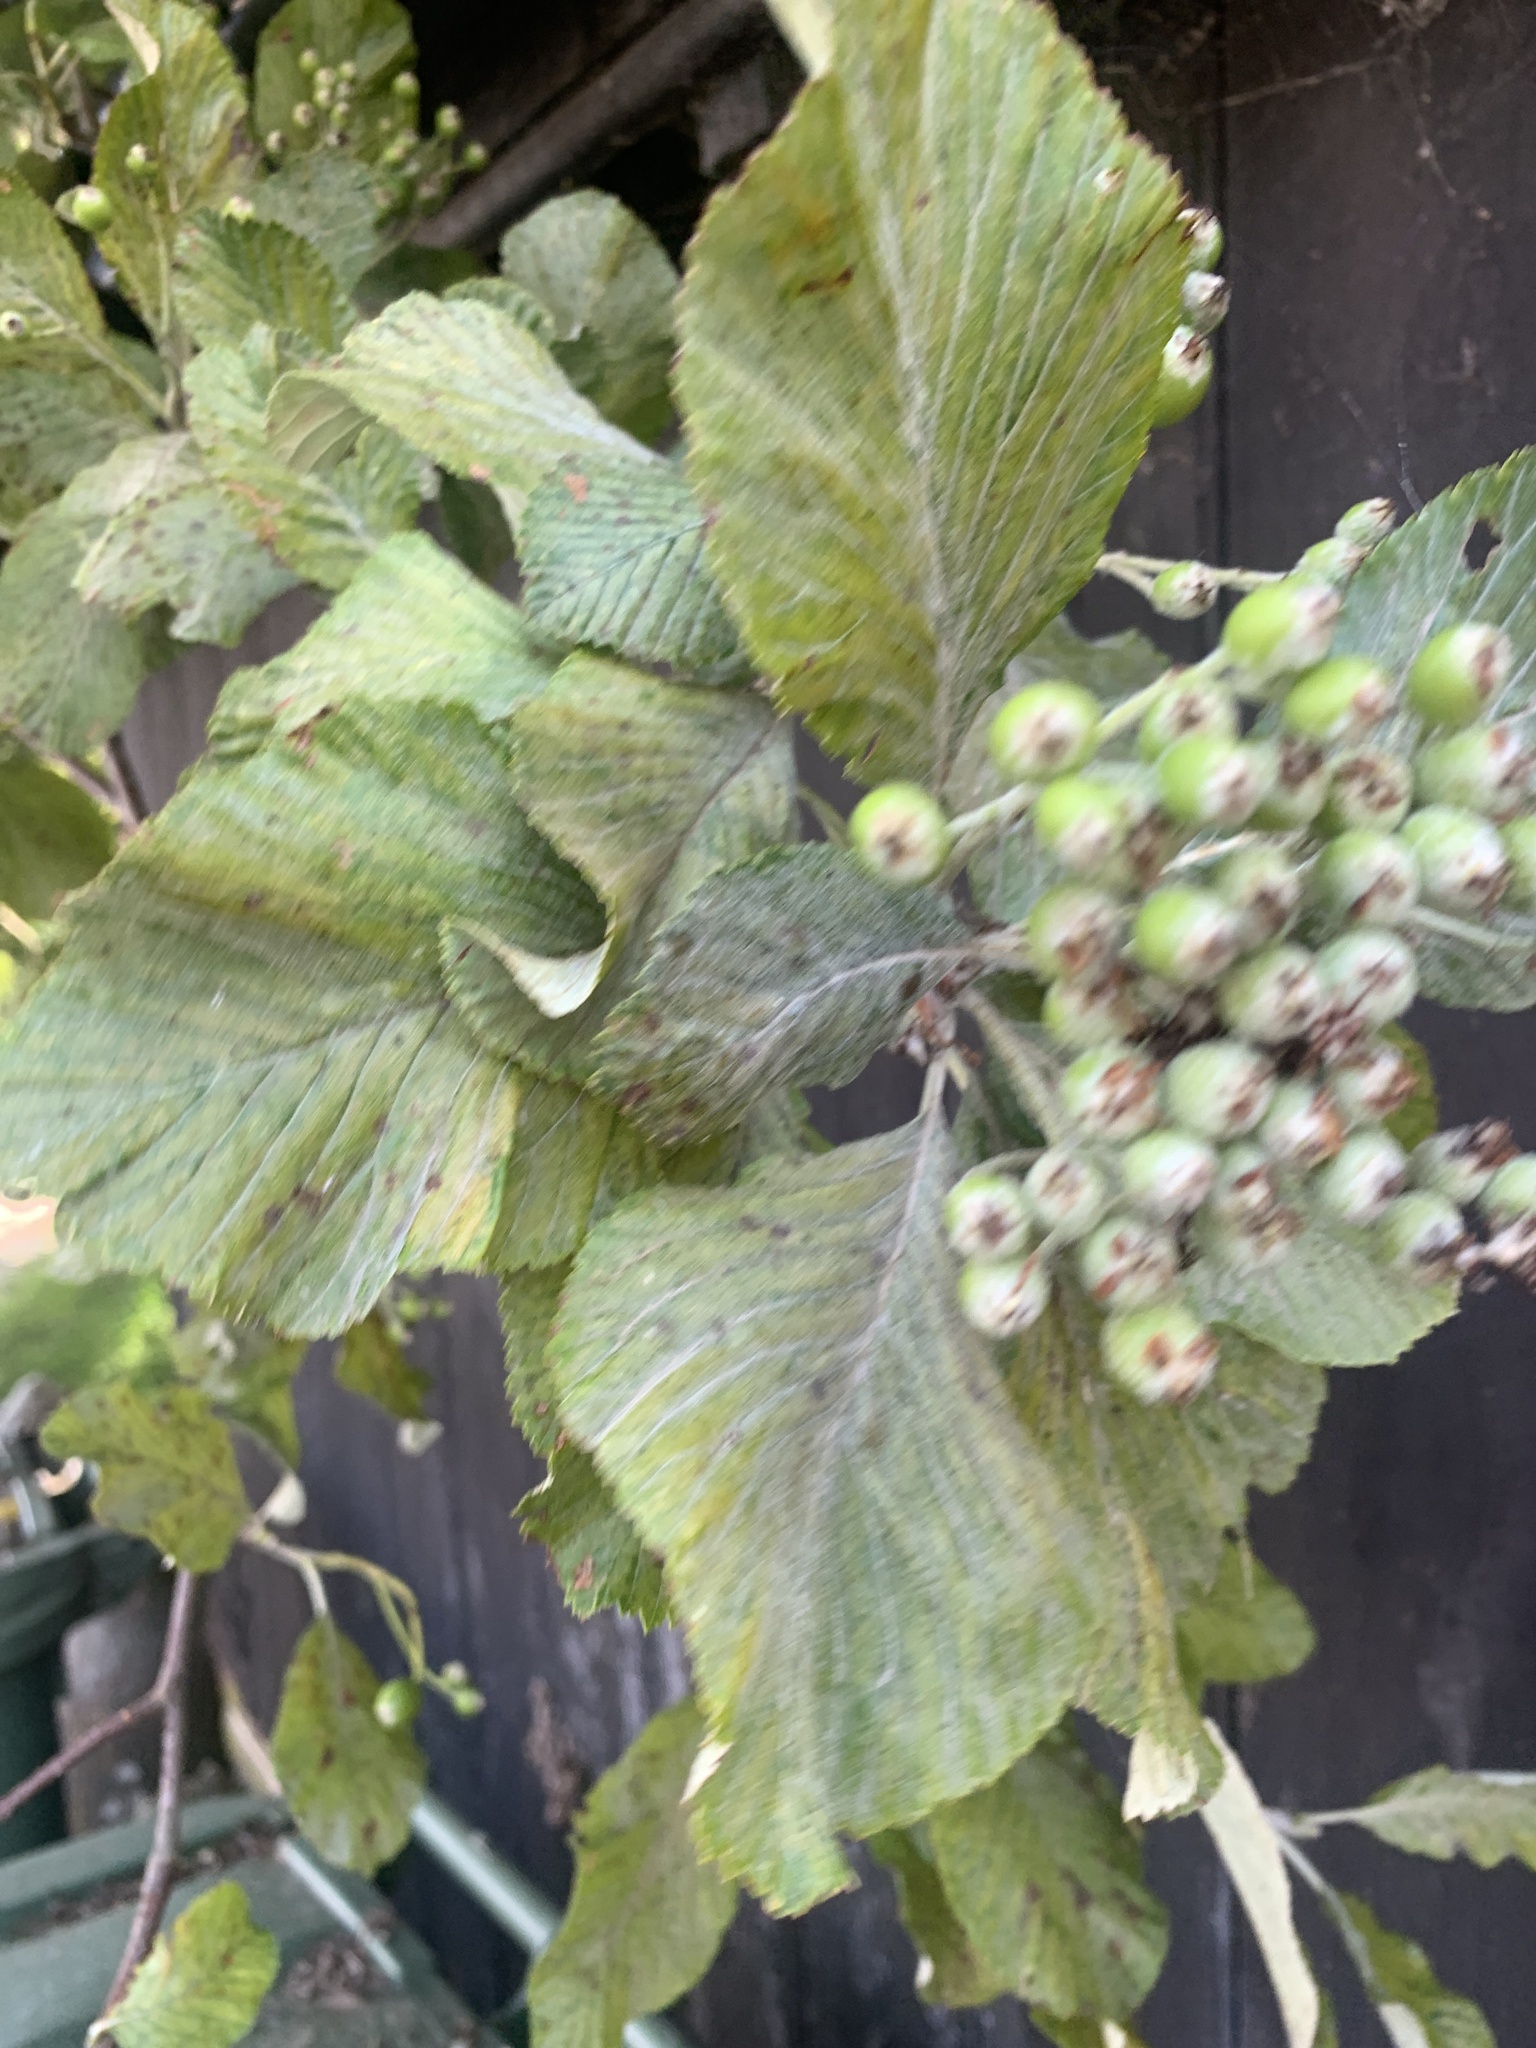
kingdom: Plantae
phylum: Tracheophyta
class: Magnoliopsida
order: Rosales
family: Rosaceae
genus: Aria
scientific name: Aria edulis
